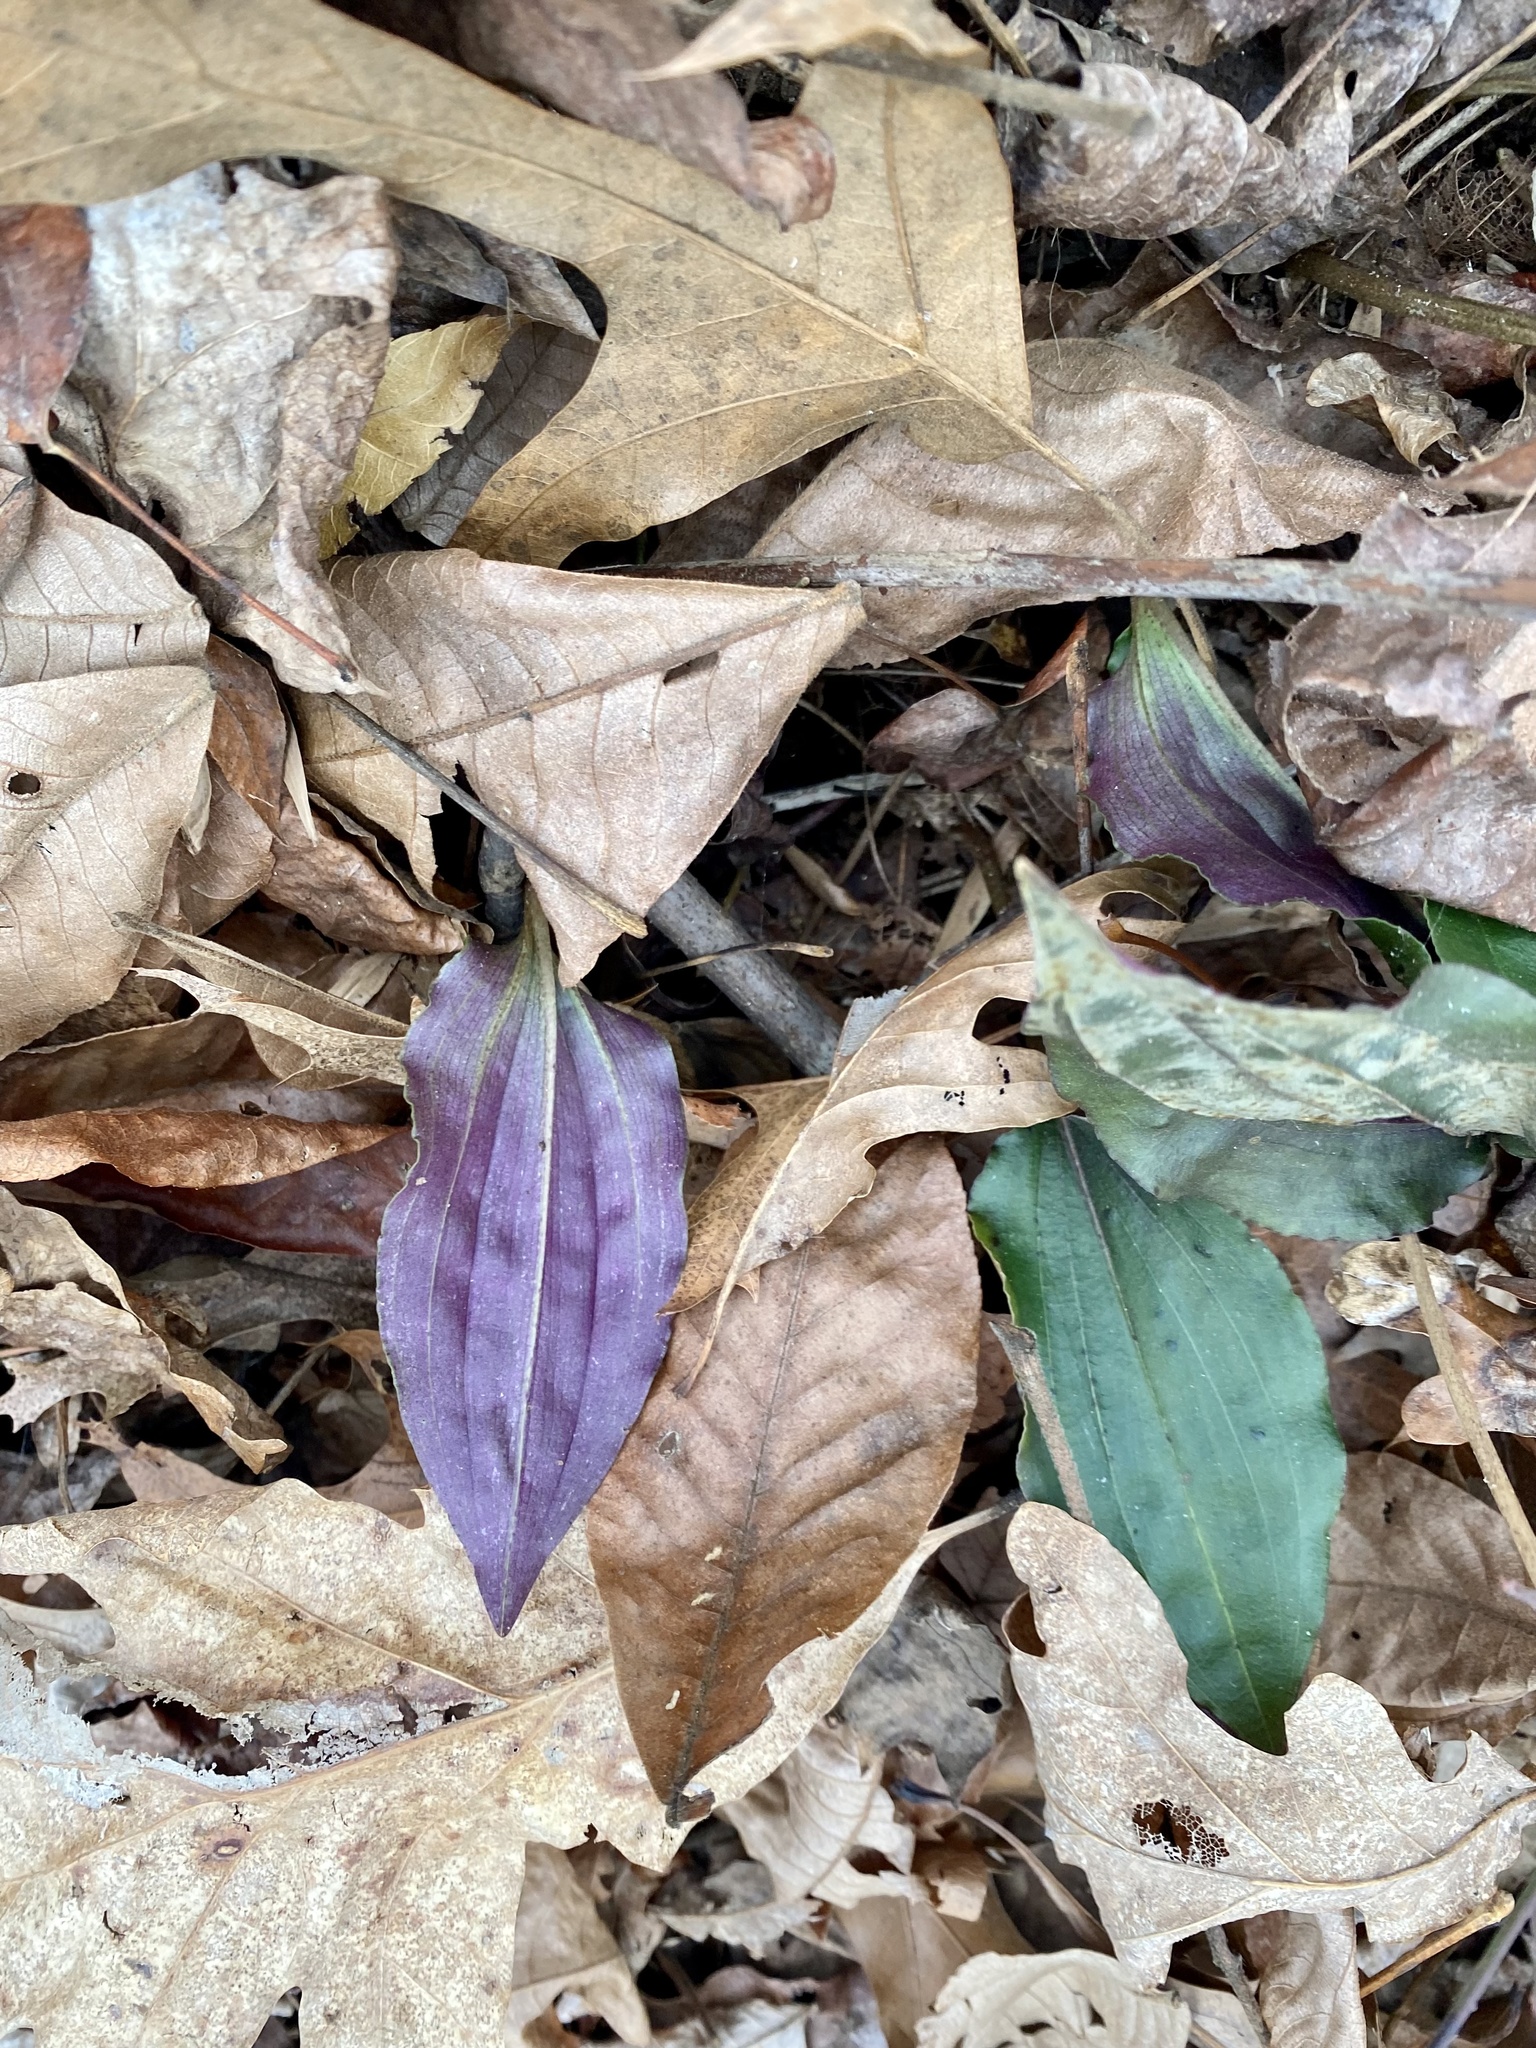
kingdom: Plantae
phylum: Tracheophyta
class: Liliopsida
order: Asparagales
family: Orchidaceae
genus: Tipularia
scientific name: Tipularia discolor
